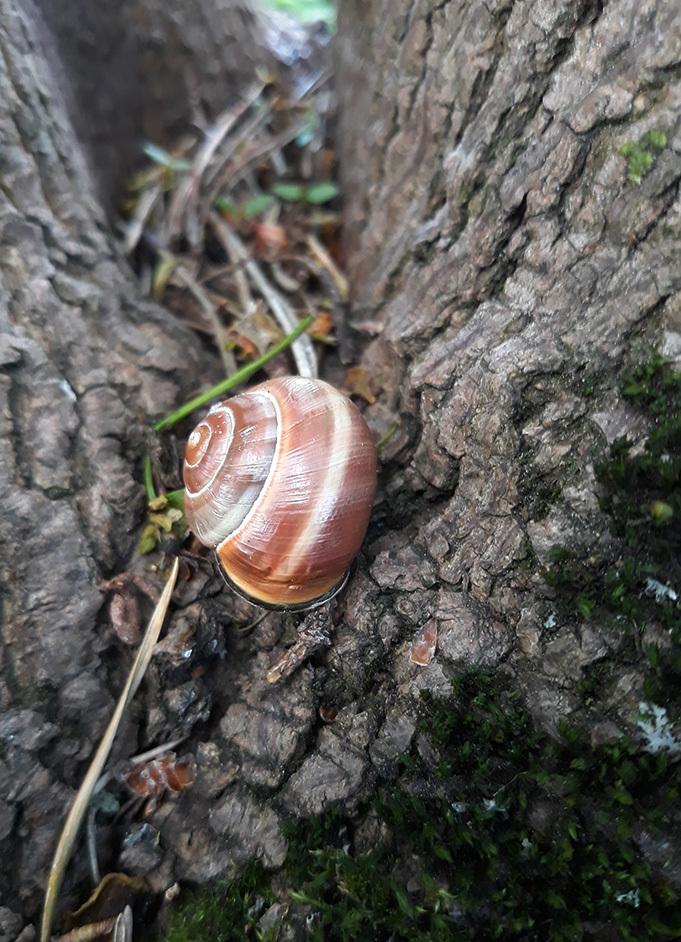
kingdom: Animalia
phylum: Mollusca
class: Gastropoda
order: Stylommatophora
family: Helicidae
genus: Cepaea
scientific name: Cepaea nemoralis
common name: Grovesnail
